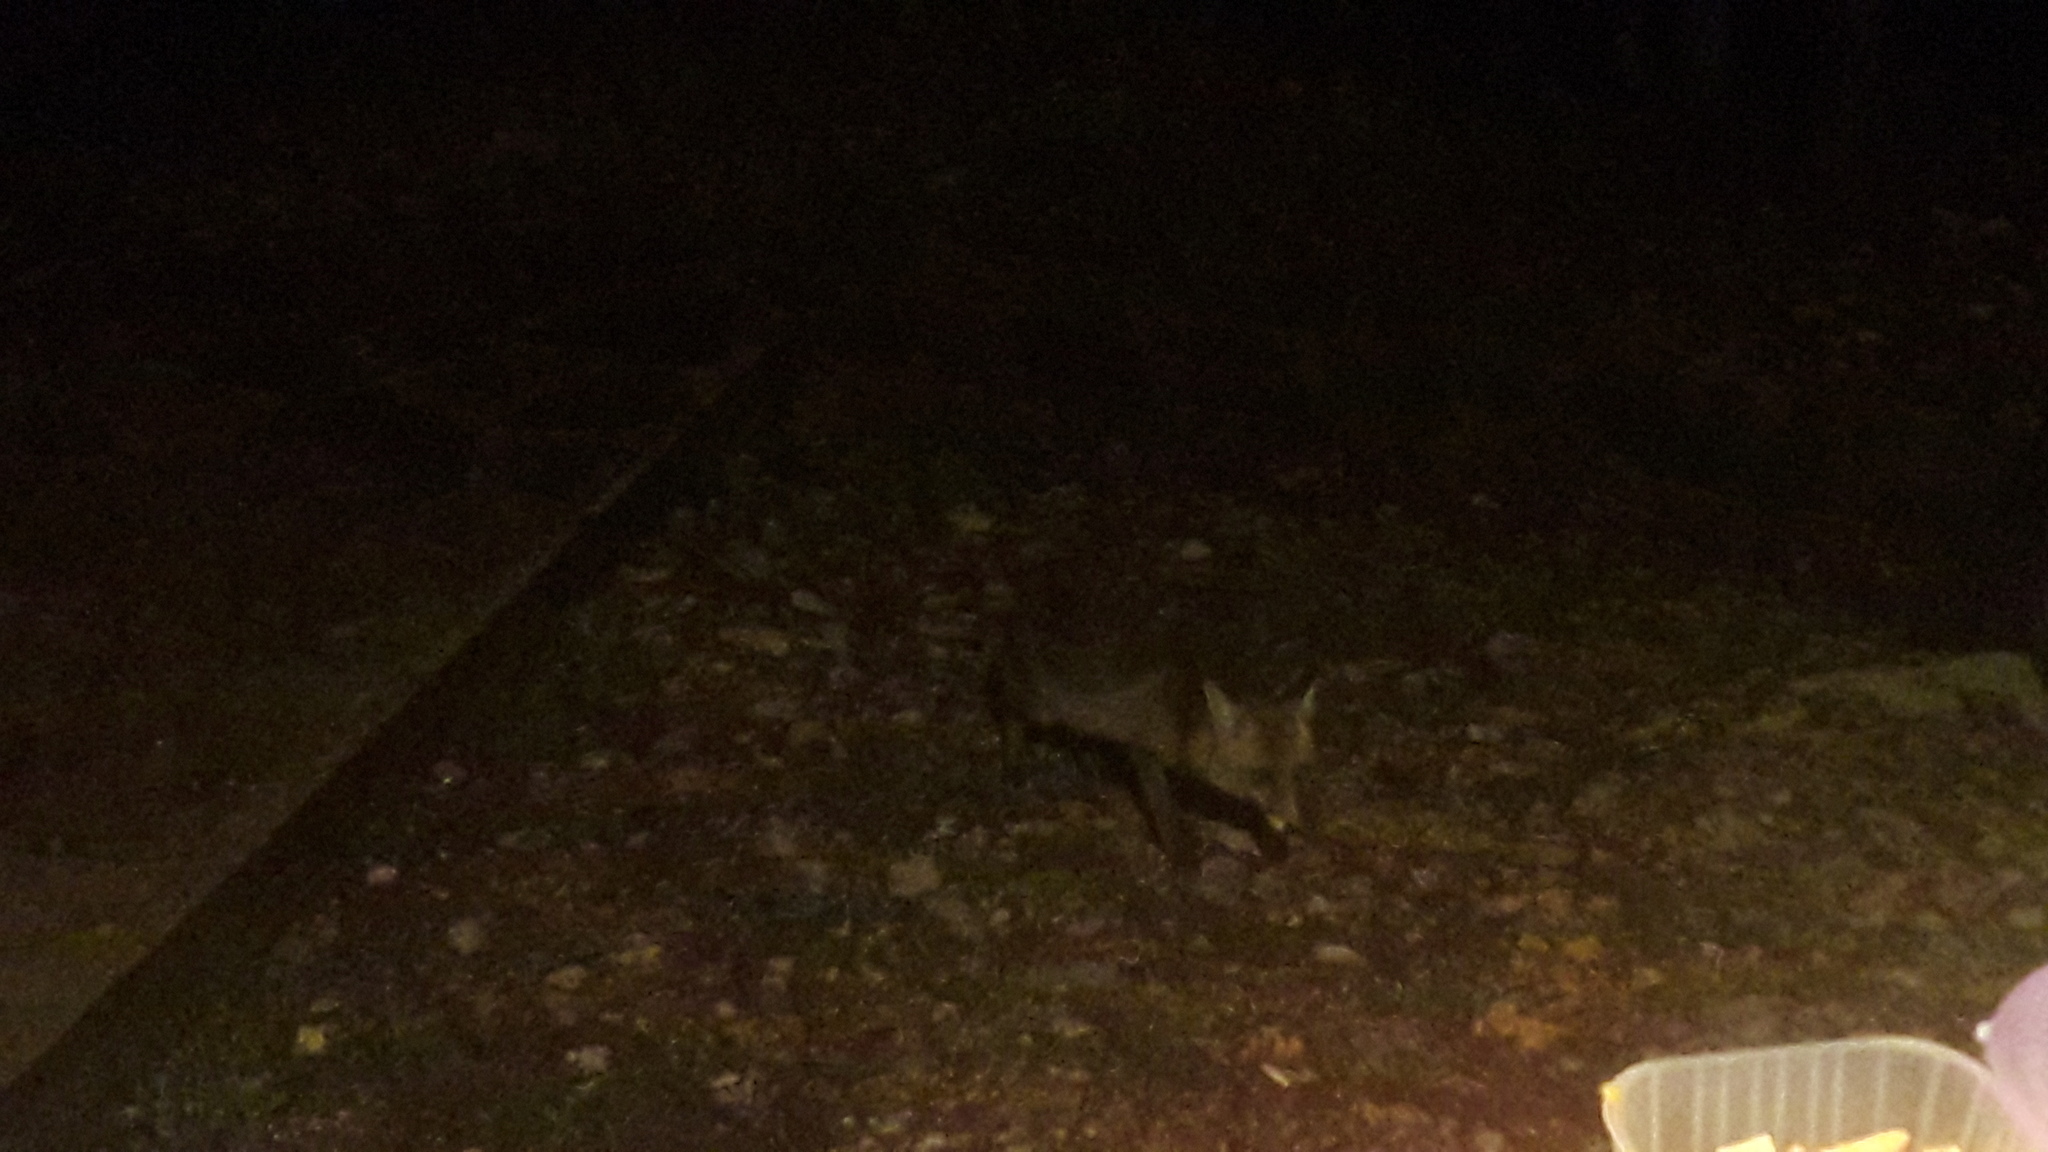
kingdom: Animalia
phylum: Chordata
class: Mammalia
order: Carnivora
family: Canidae
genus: Vulpes
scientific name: Vulpes vulpes
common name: Red fox
